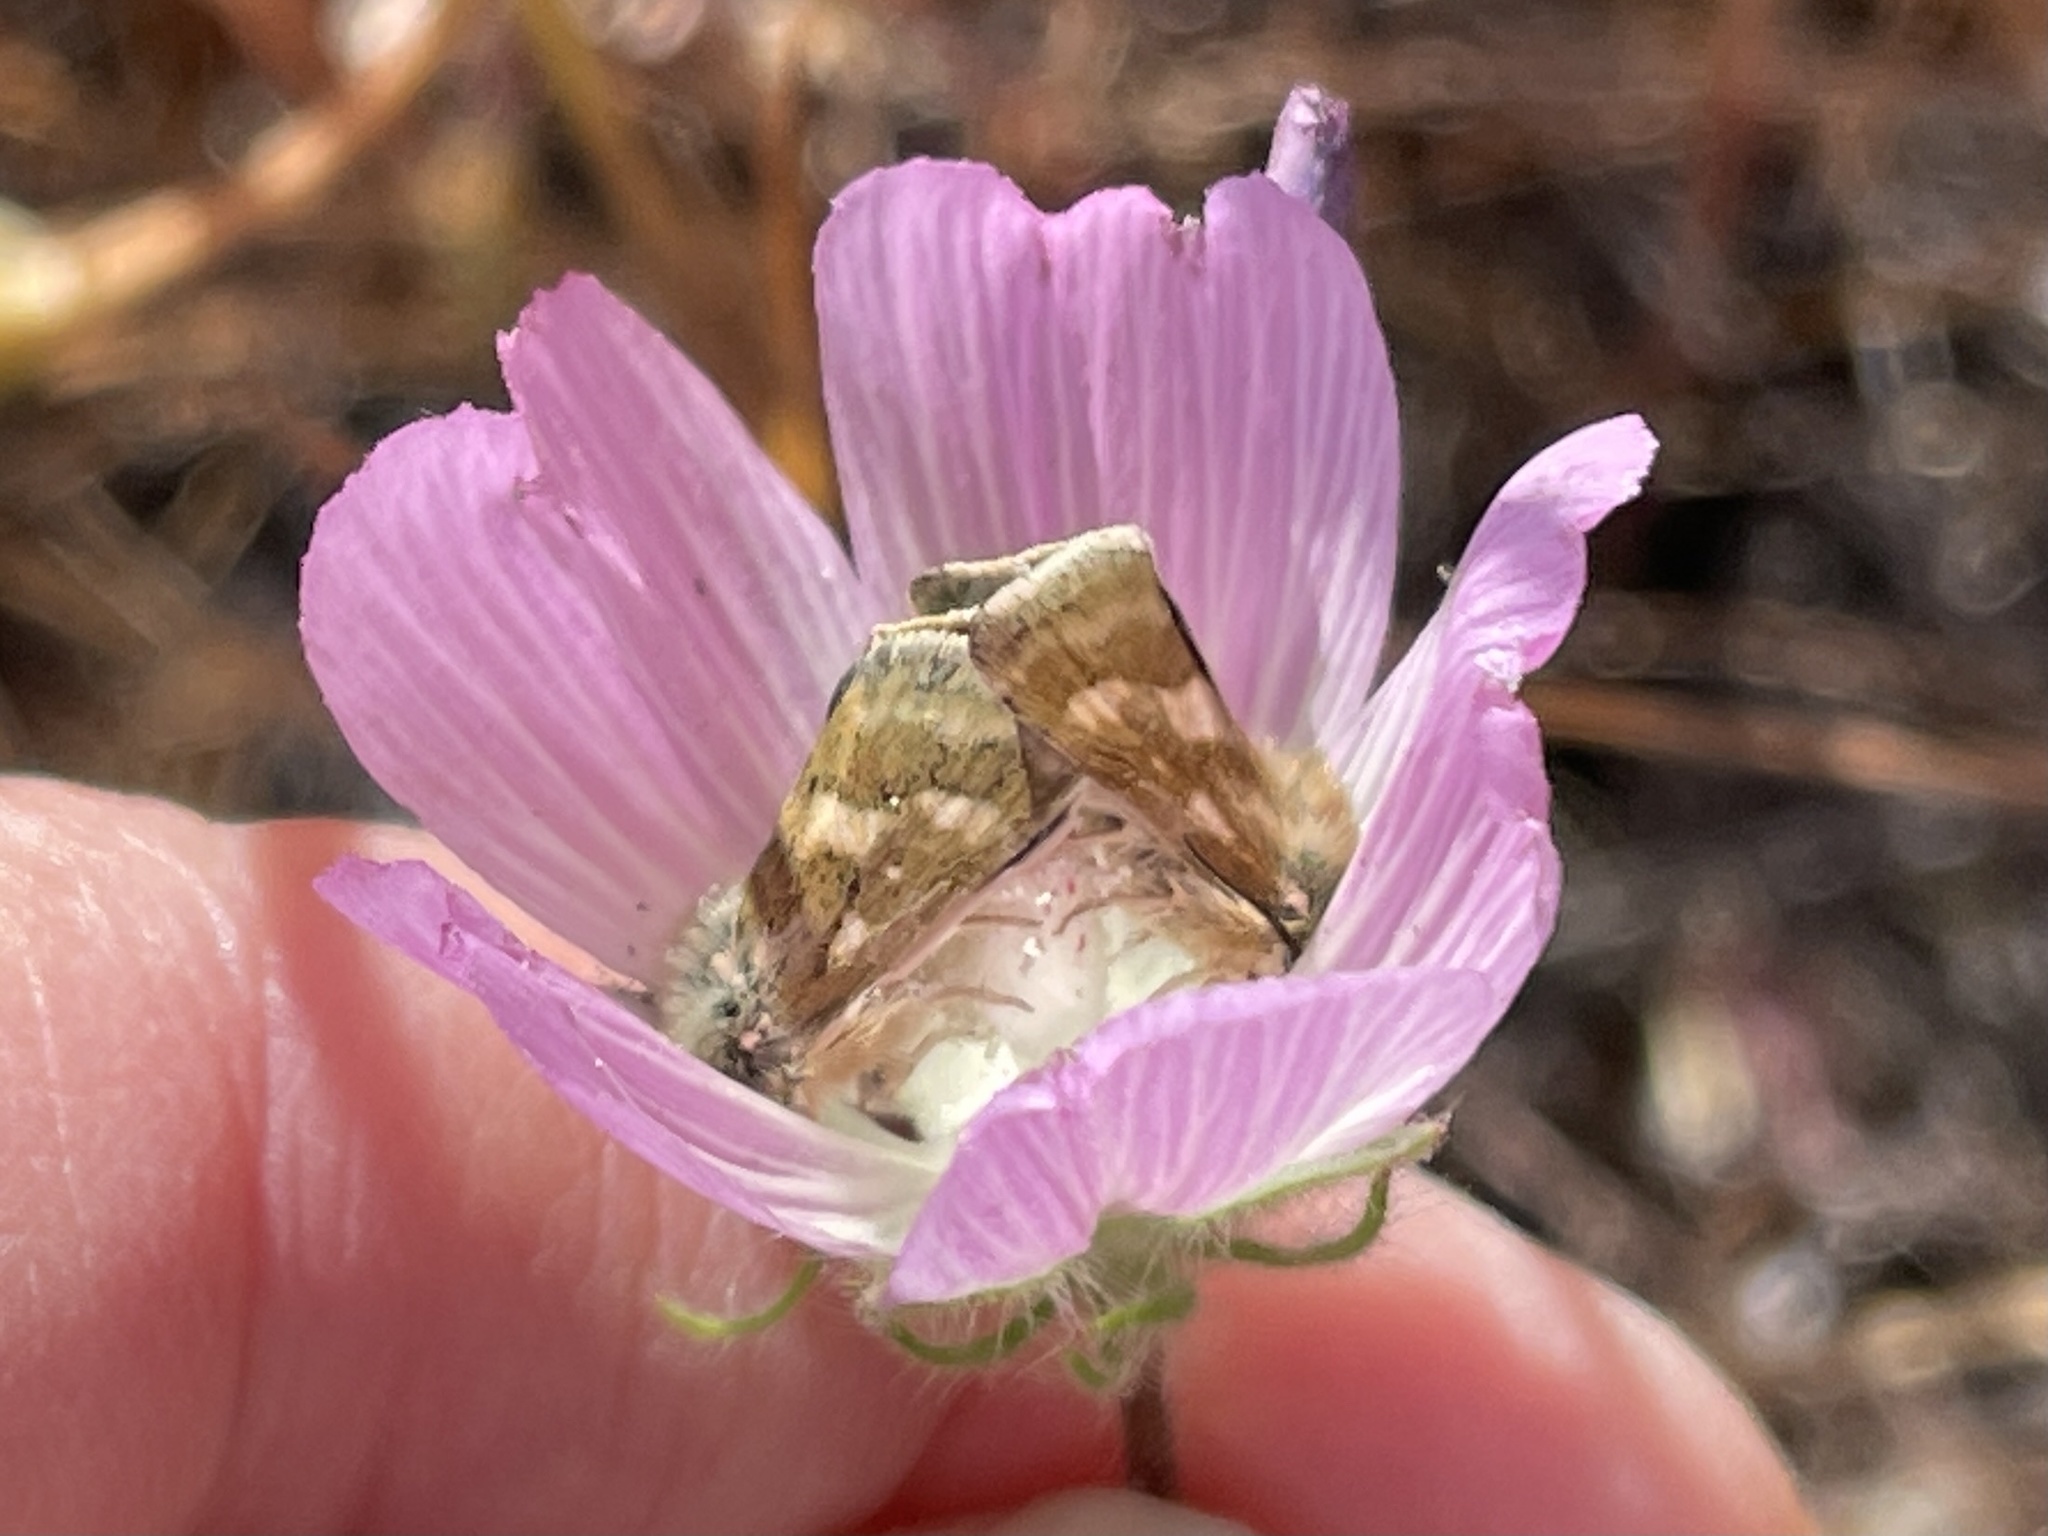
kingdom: Plantae
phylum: Tracheophyta
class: Magnoliopsida
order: Malvales
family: Malvaceae
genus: Sidalcea
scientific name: Sidalcea diploscypha
